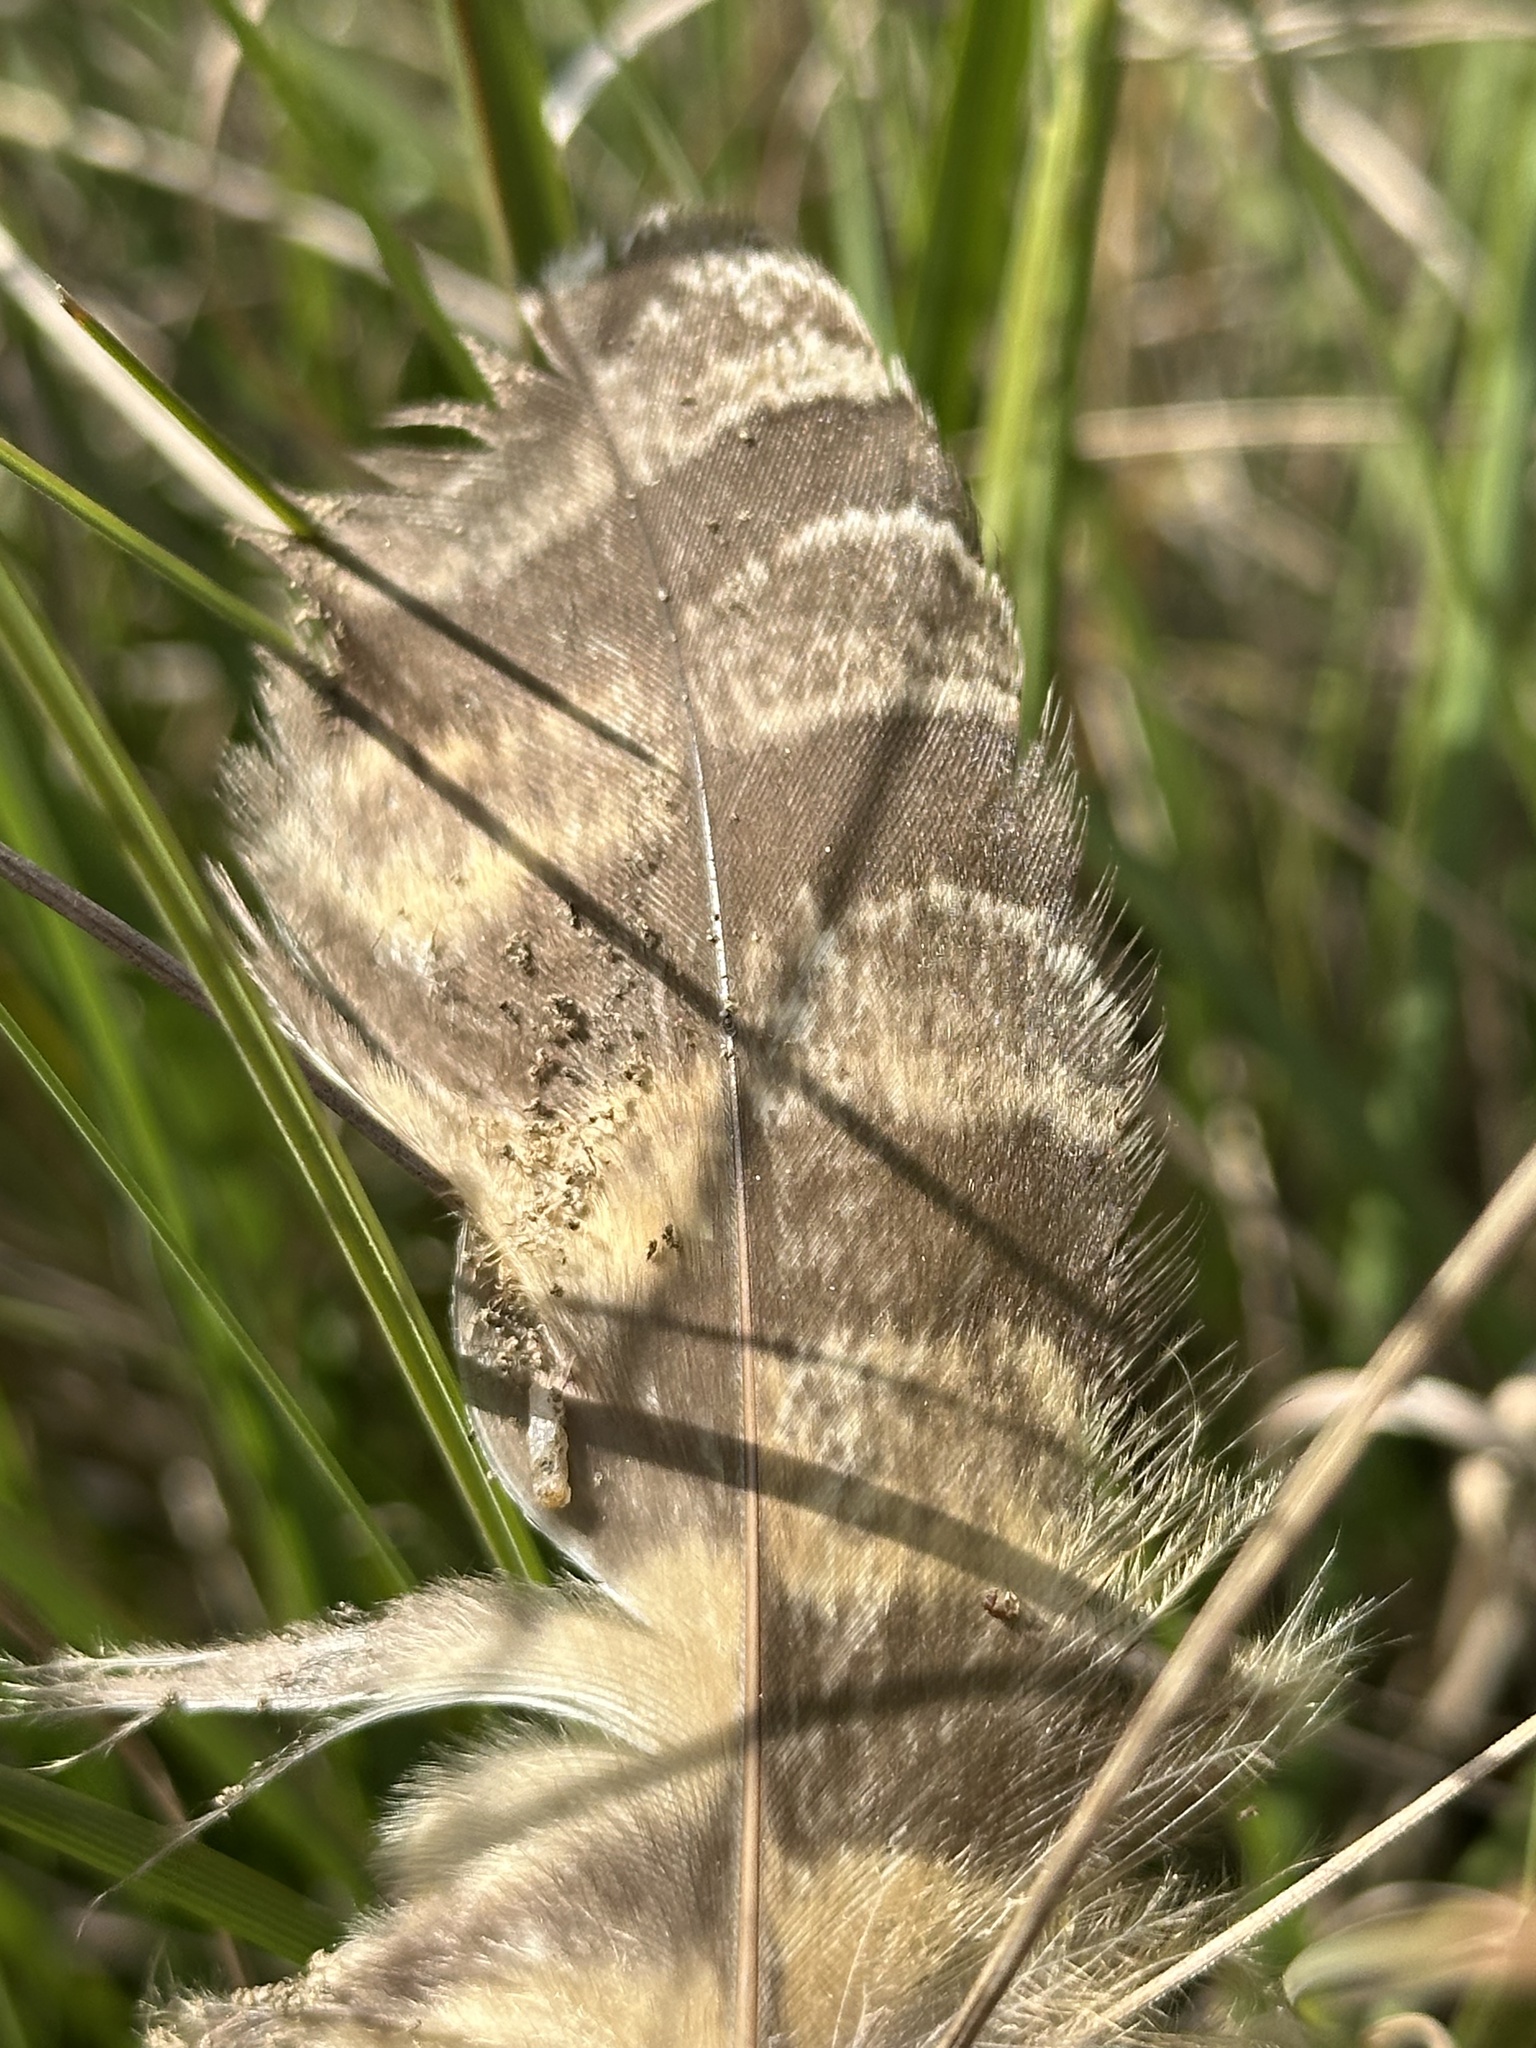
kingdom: Animalia
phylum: Chordata
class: Aves
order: Strigiformes
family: Strigidae
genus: Bubo
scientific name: Bubo virginianus
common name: Great horned owl
